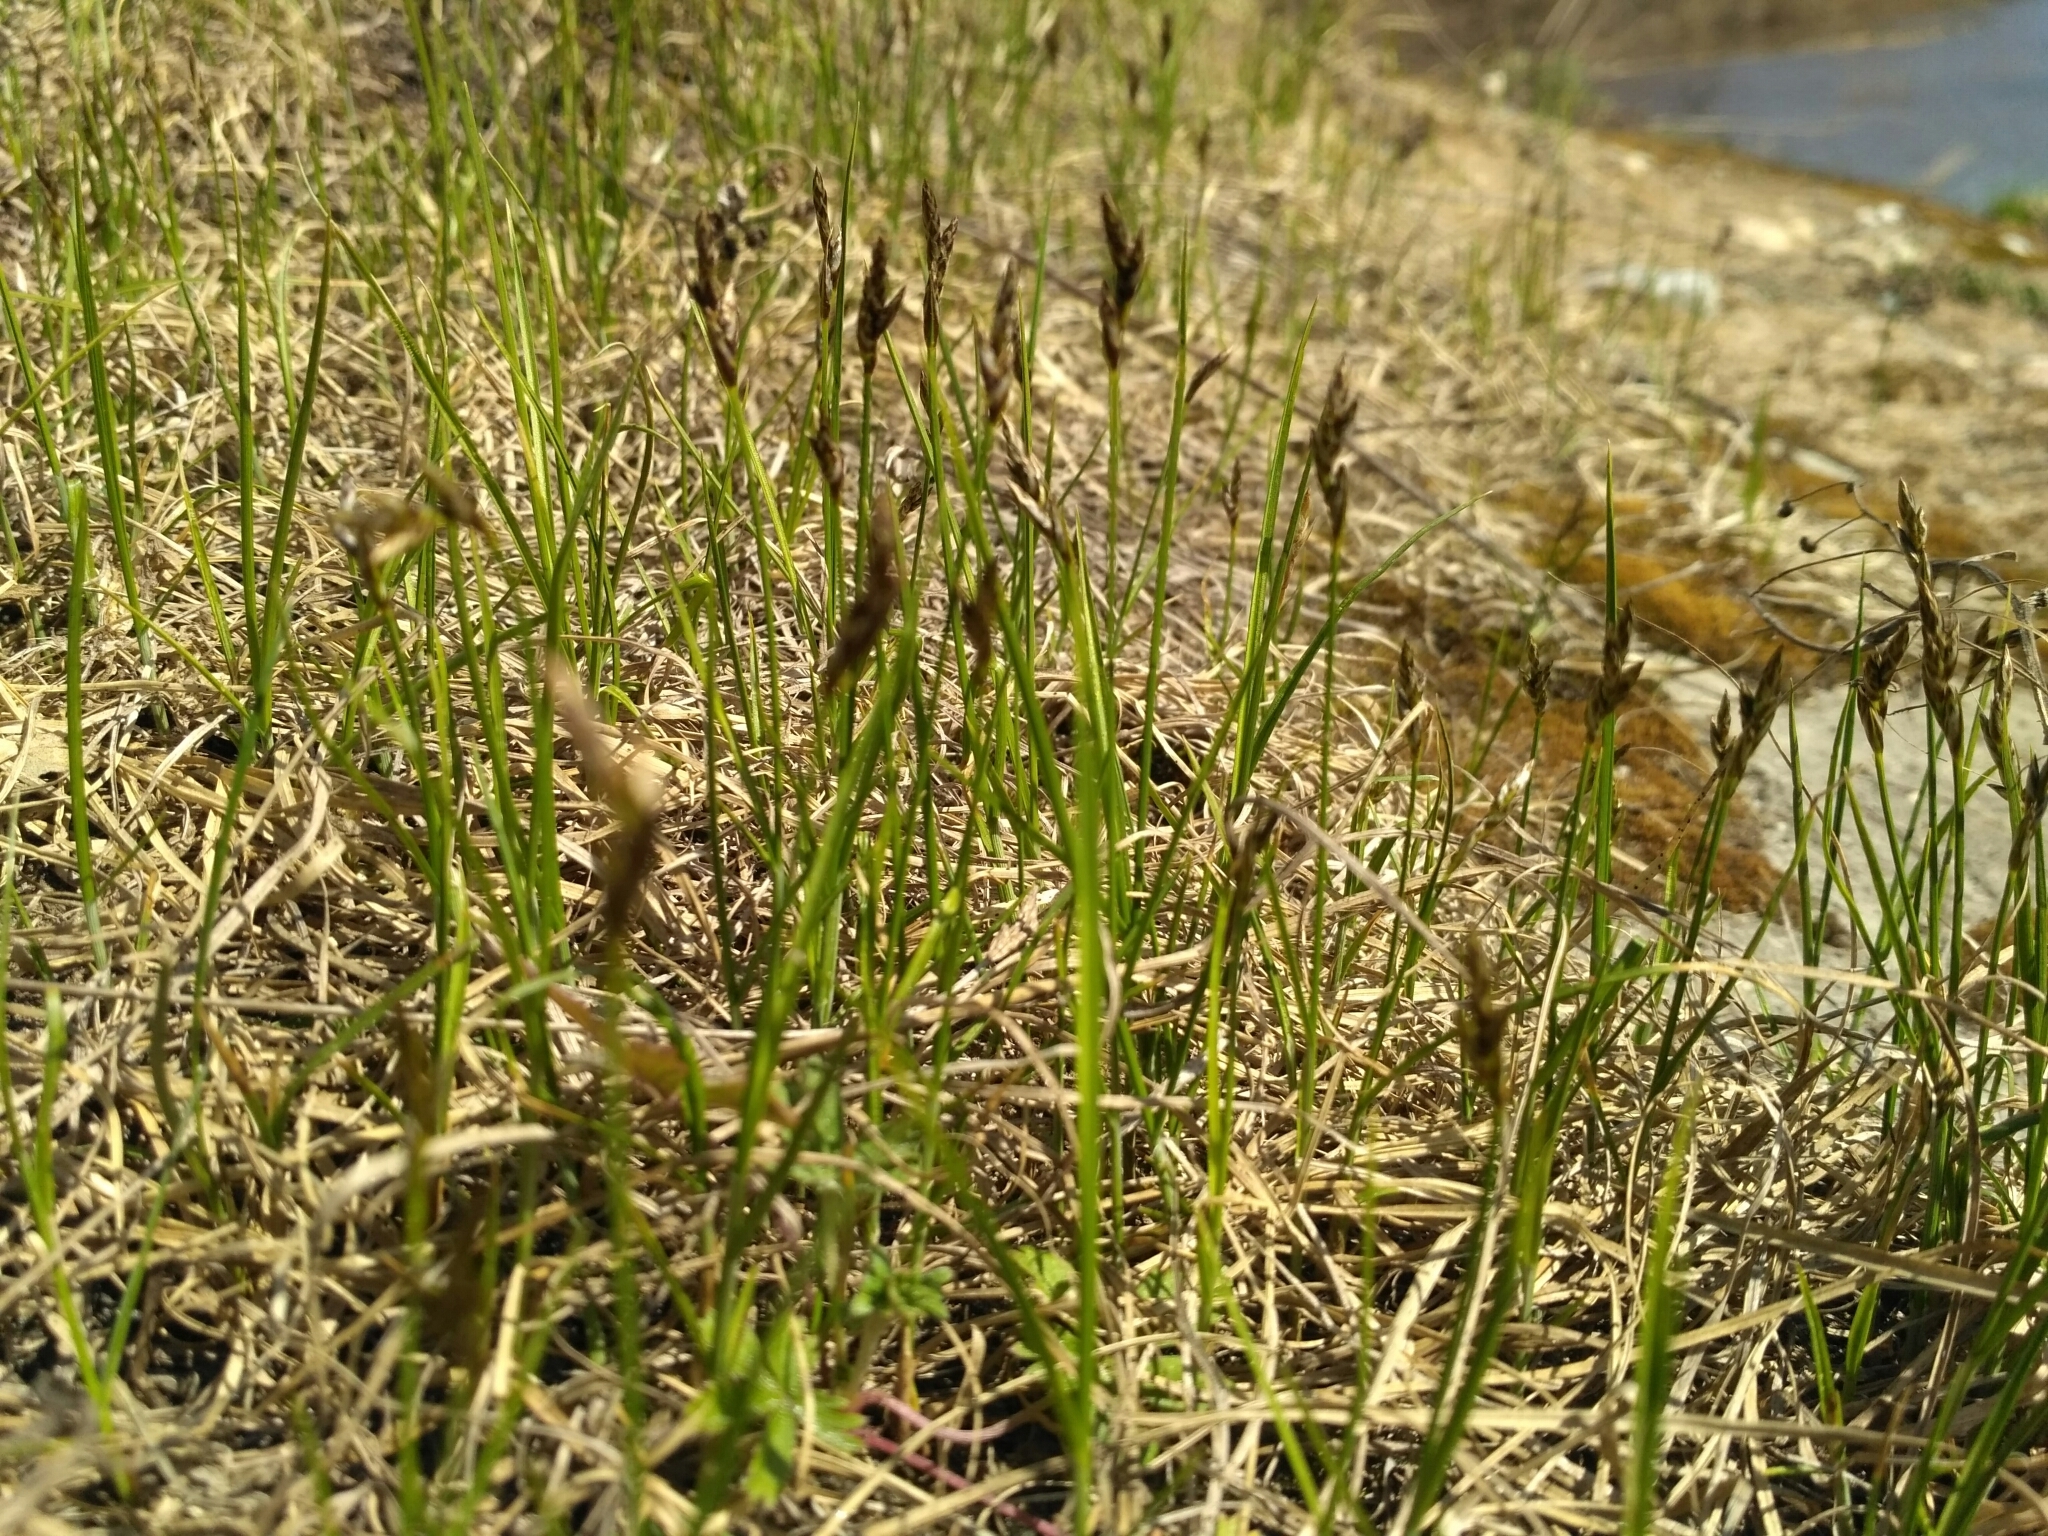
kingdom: Plantae
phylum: Tracheophyta
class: Liliopsida
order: Poales
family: Cyperaceae
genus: Carex
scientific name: Carex praecox
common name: Early sedge
